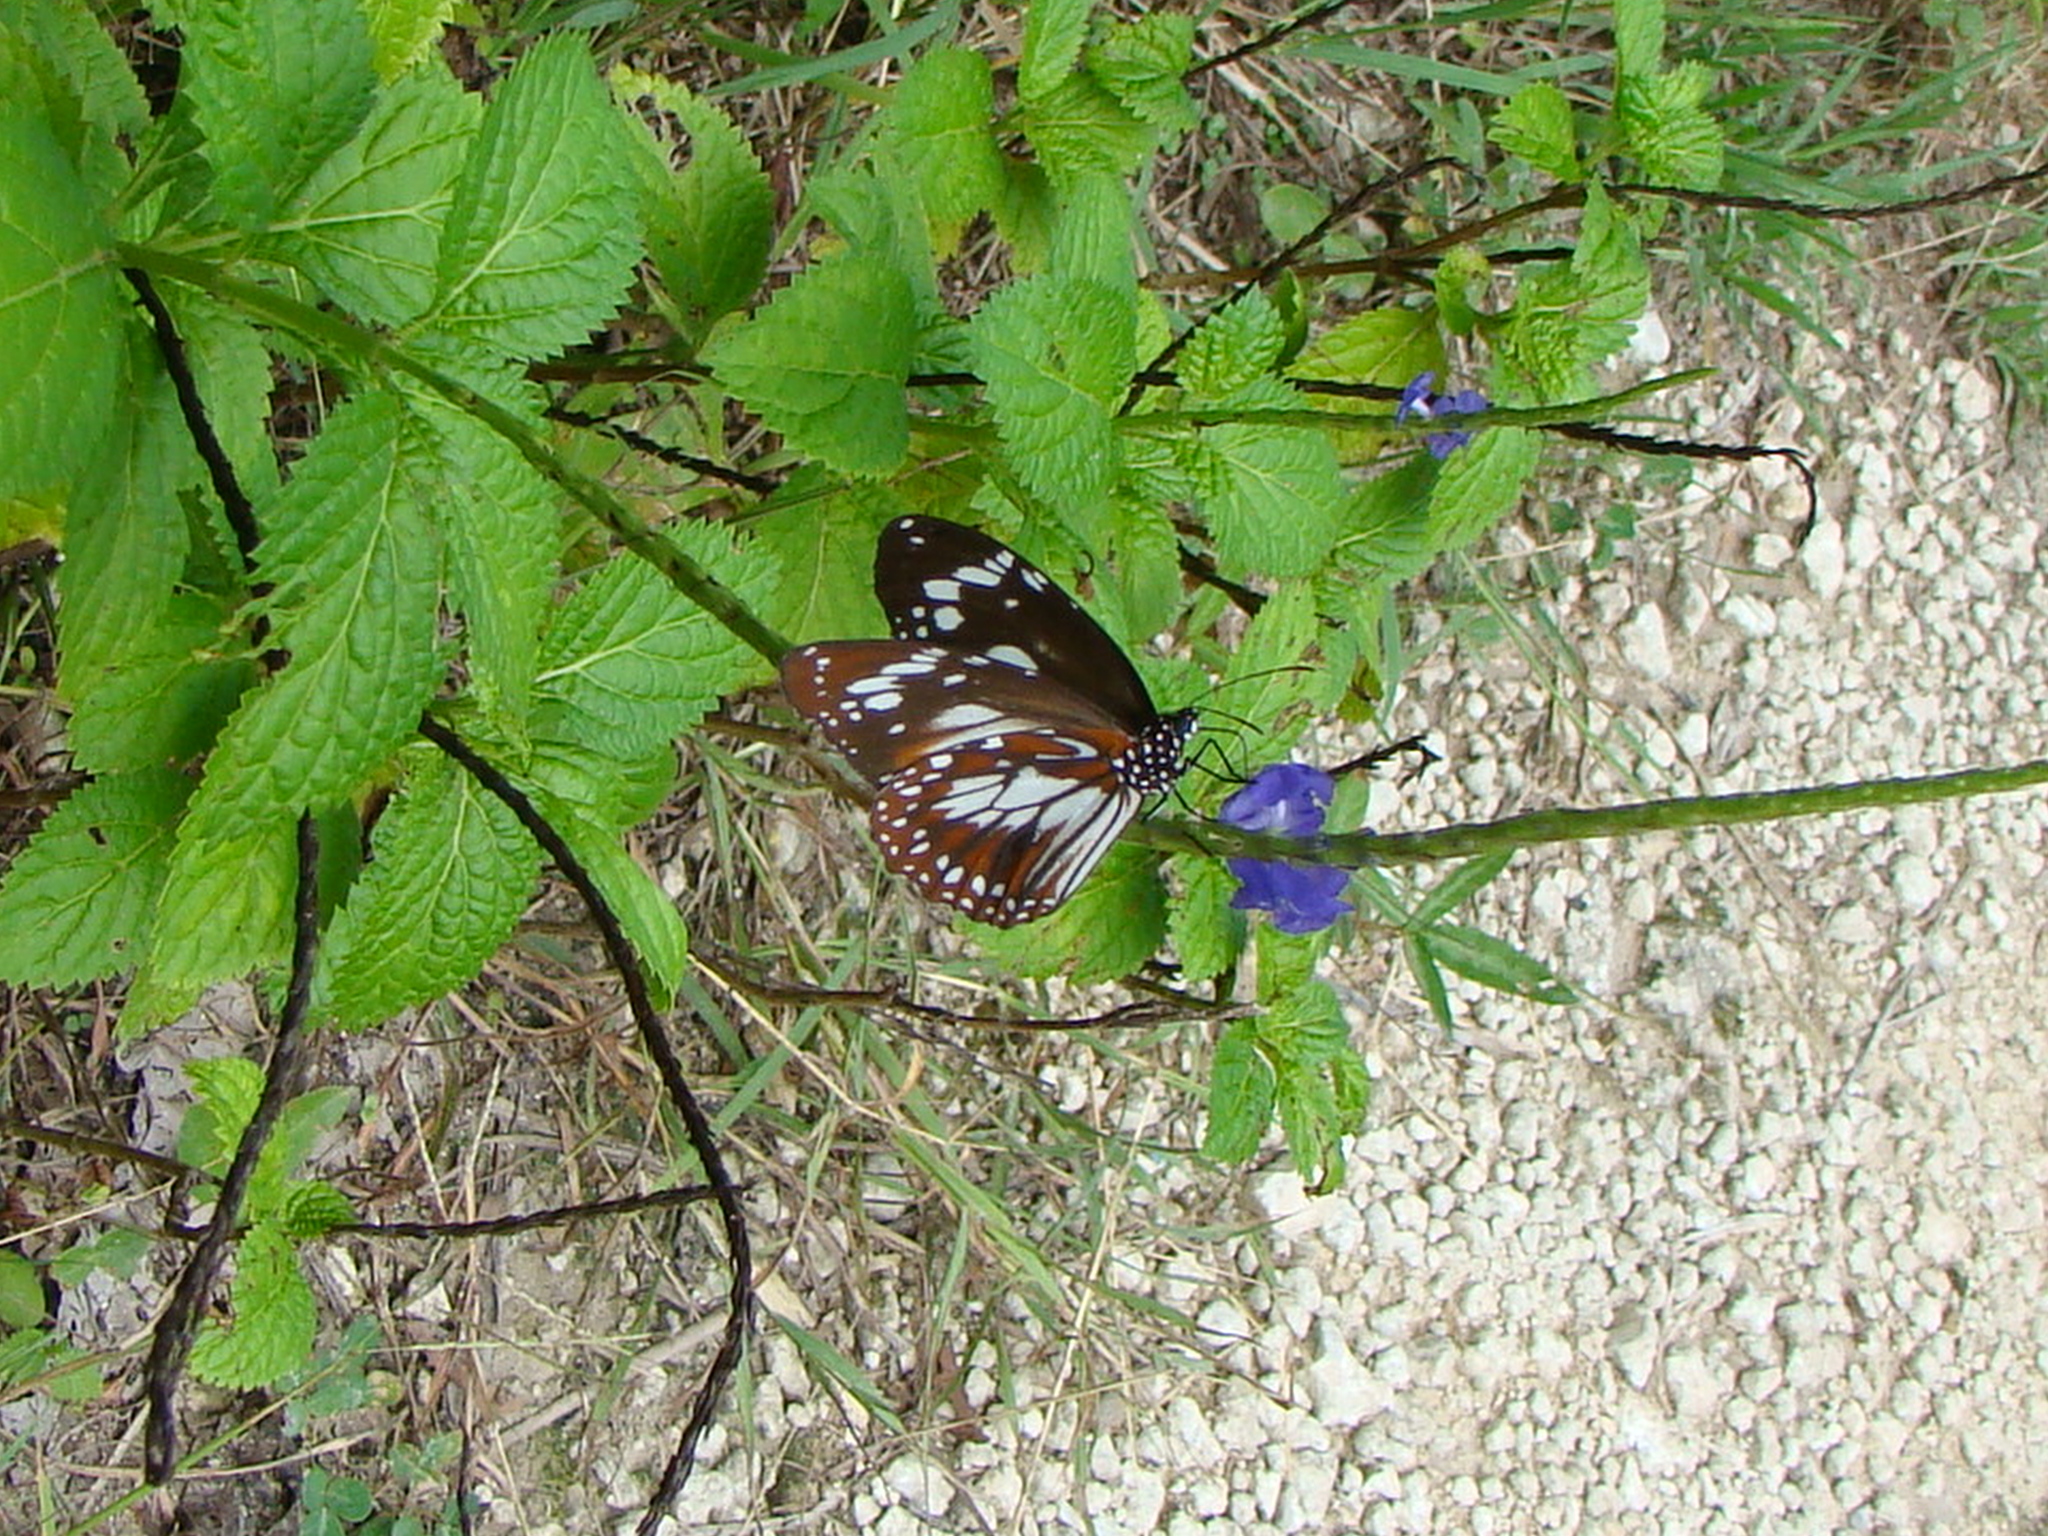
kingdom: Animalia
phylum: Arthropoda
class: Insecta
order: Lepidoptera
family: Nymphalidae
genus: Danaus
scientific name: Danaus affinis
